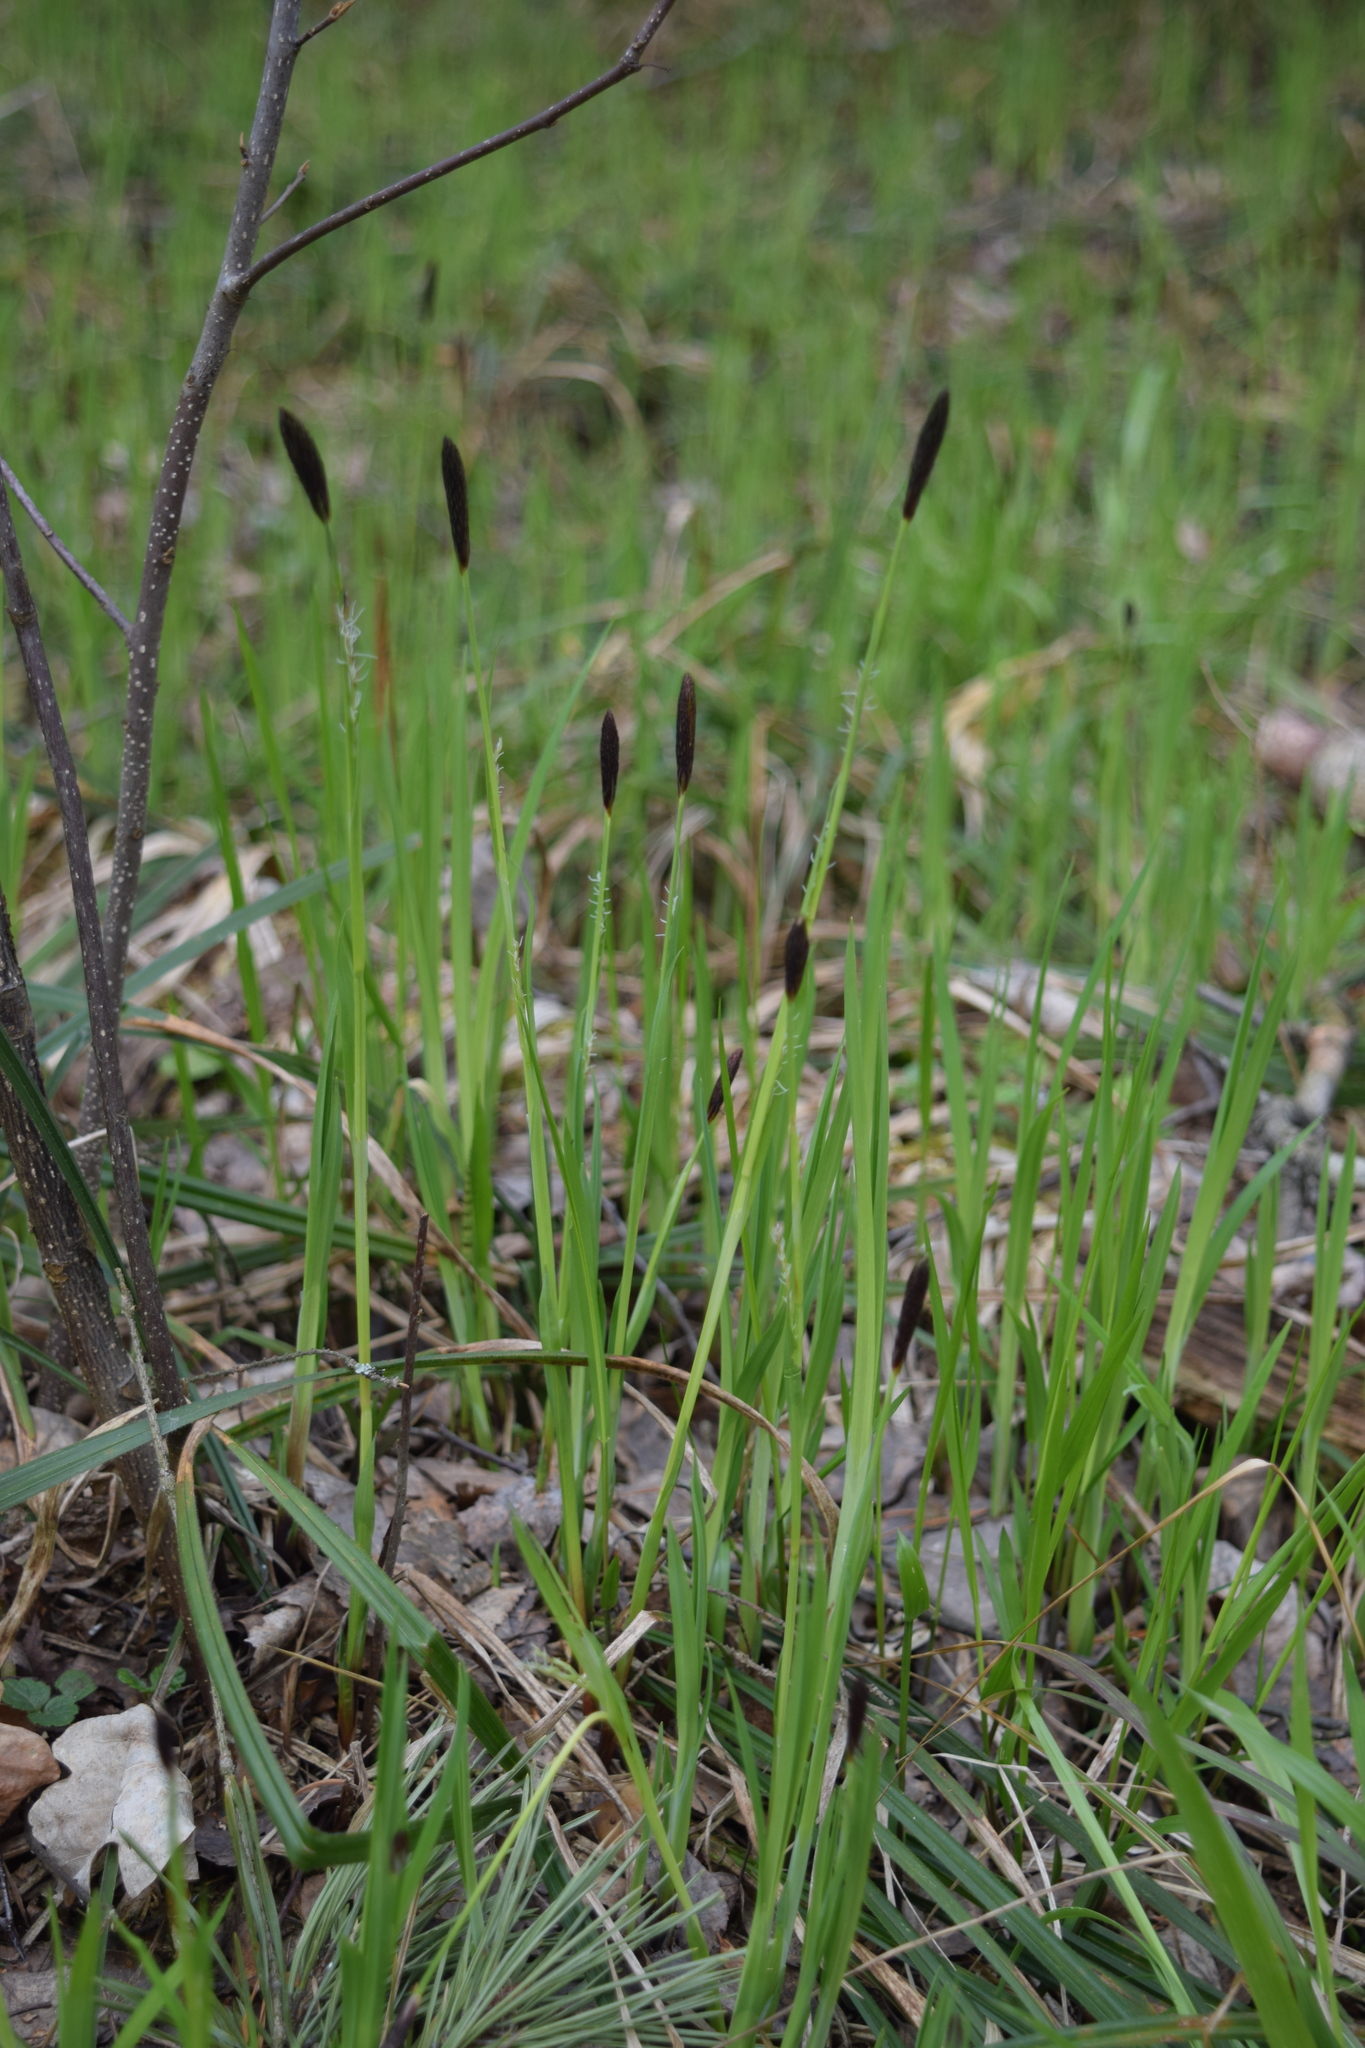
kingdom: Plantae
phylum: Tracheophyta
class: Liliopsida
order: Poales
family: Cyperaceae
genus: Carex
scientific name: Carex pilosa
